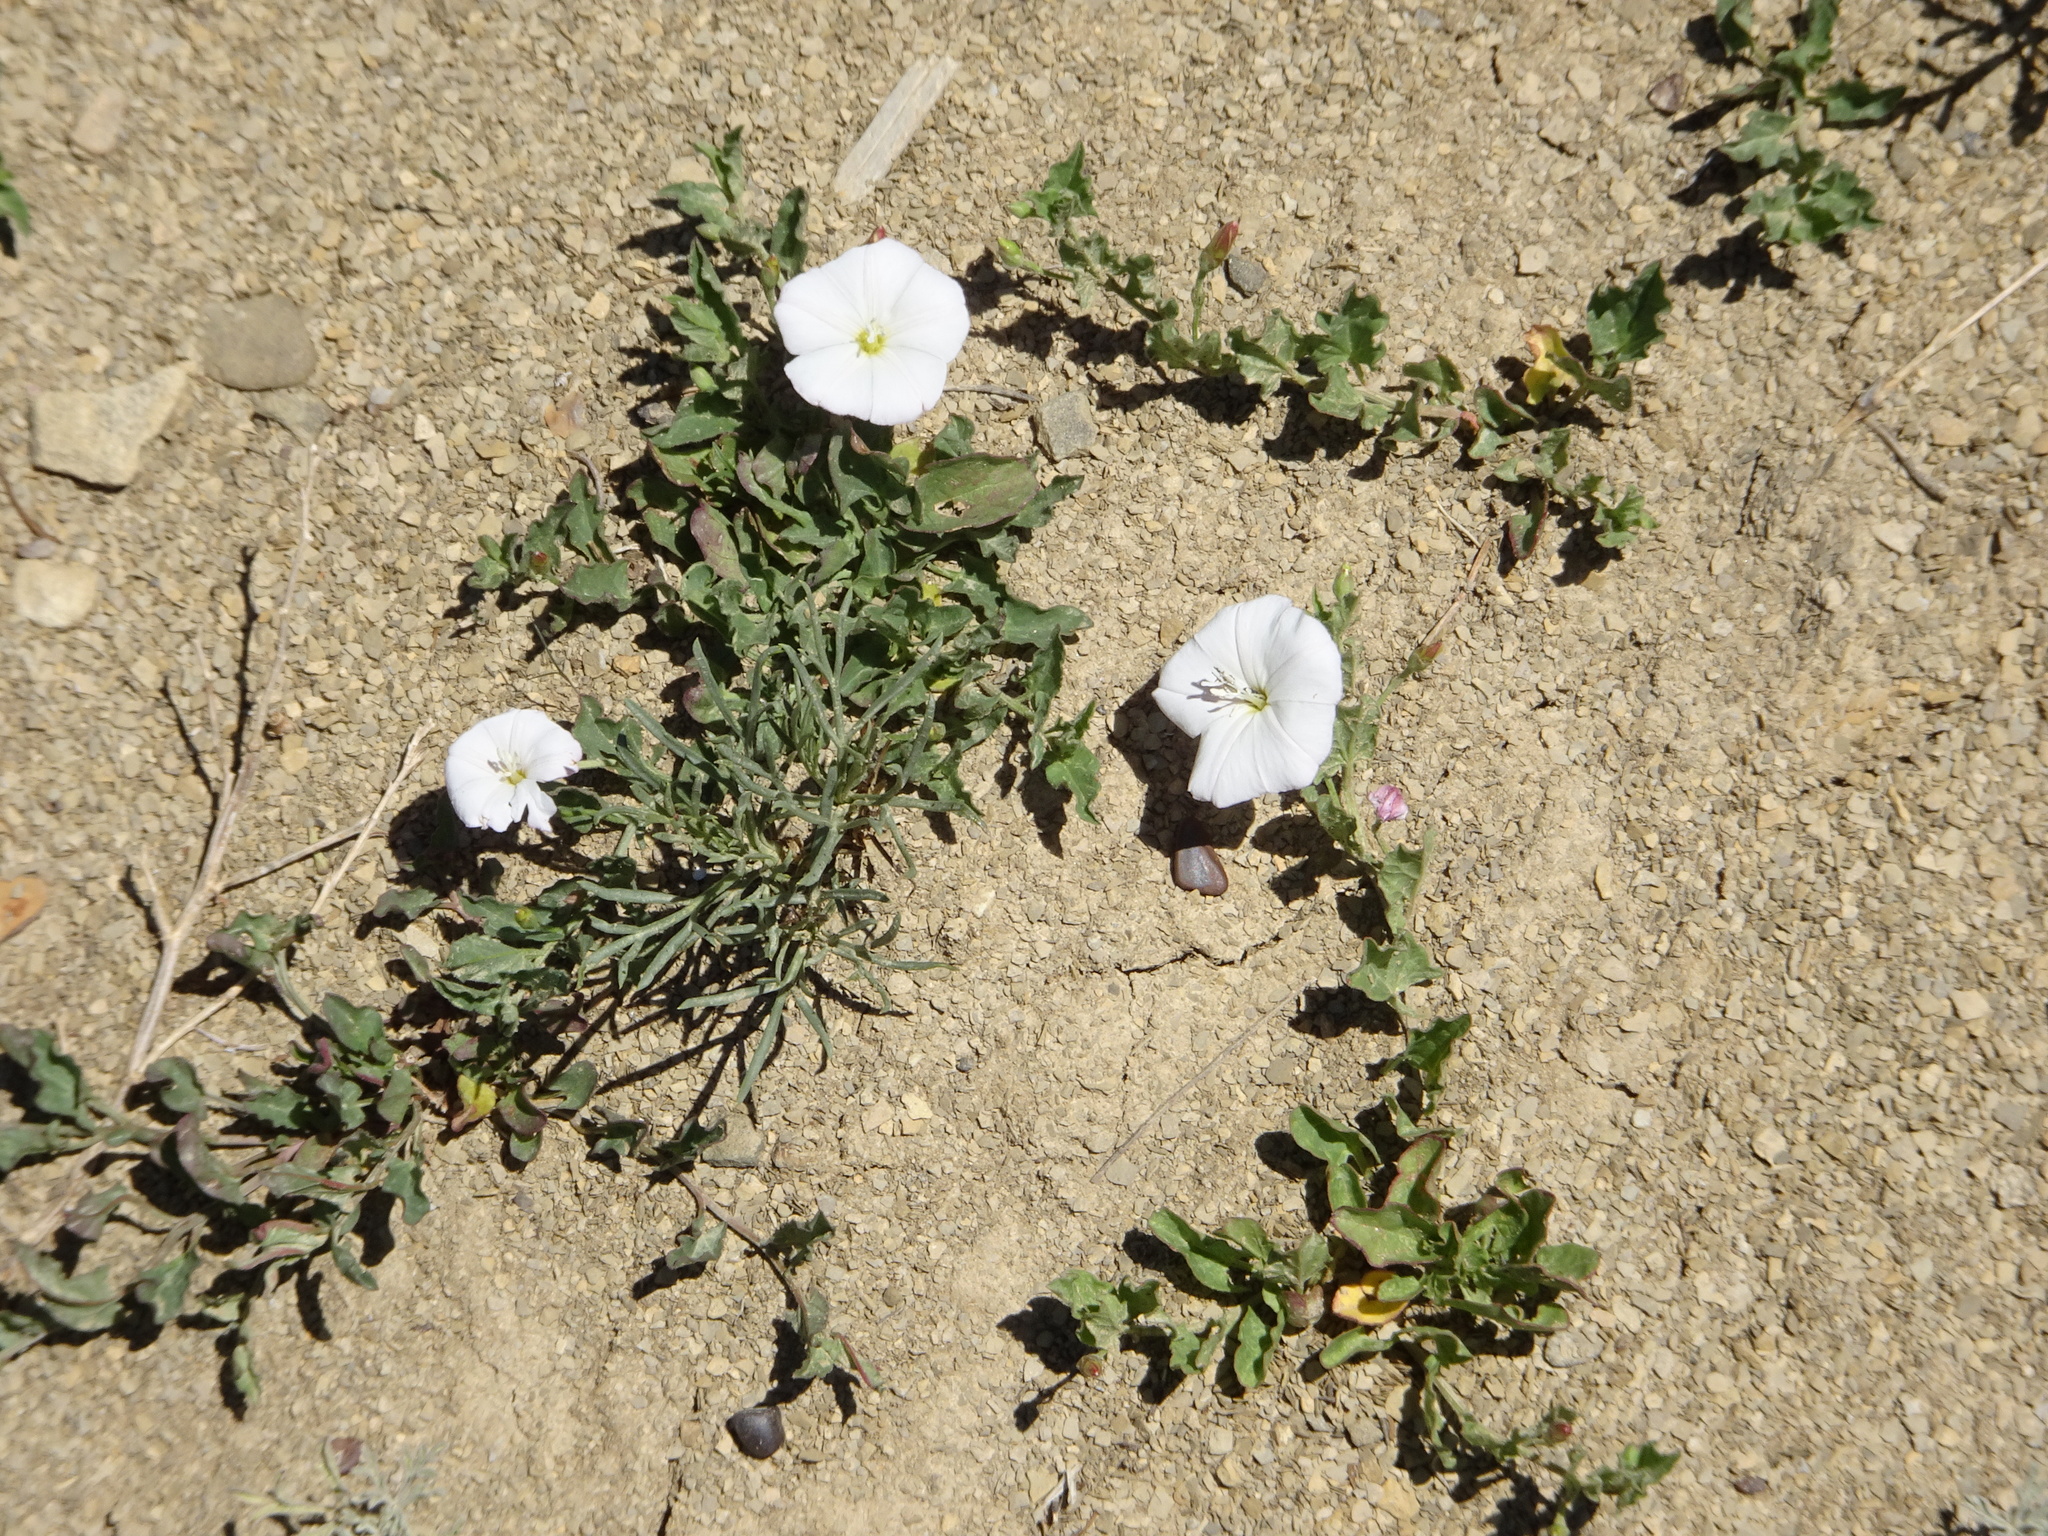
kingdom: Plantae
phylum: Tracheophyta
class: Magnoliopsida
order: Solanales
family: Convolvulaceae
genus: Convolvulus
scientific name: Convolvulus arvensis
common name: Field bindweed
